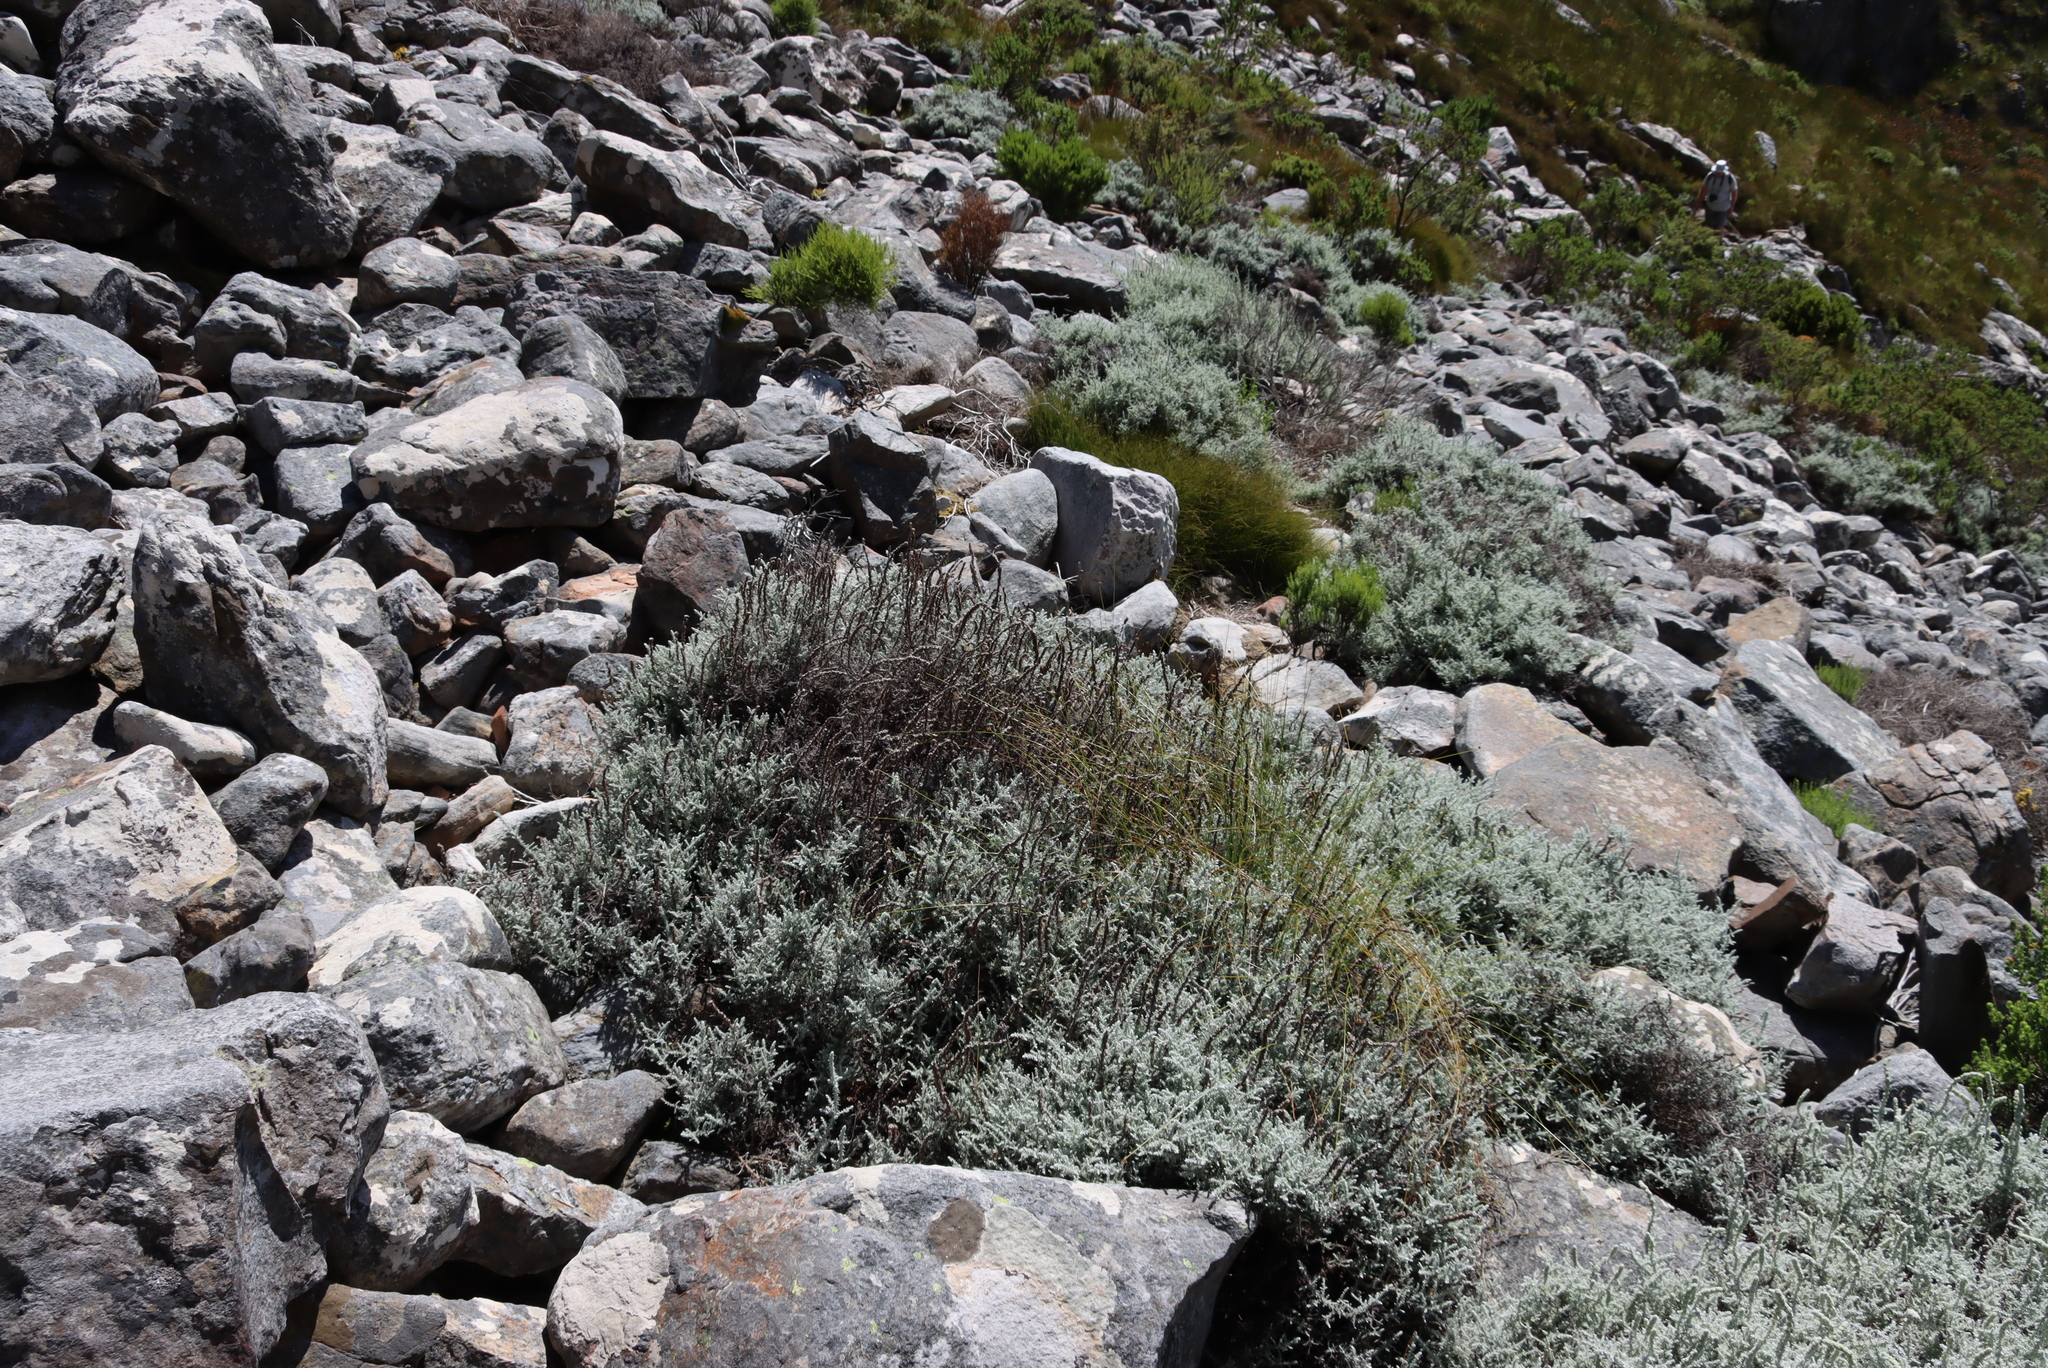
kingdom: Plantae
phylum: Tracheophyta
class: Magnoliopsida
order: Asterales
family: Asteraceae
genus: Seriphium
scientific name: Seriphium plumosum
